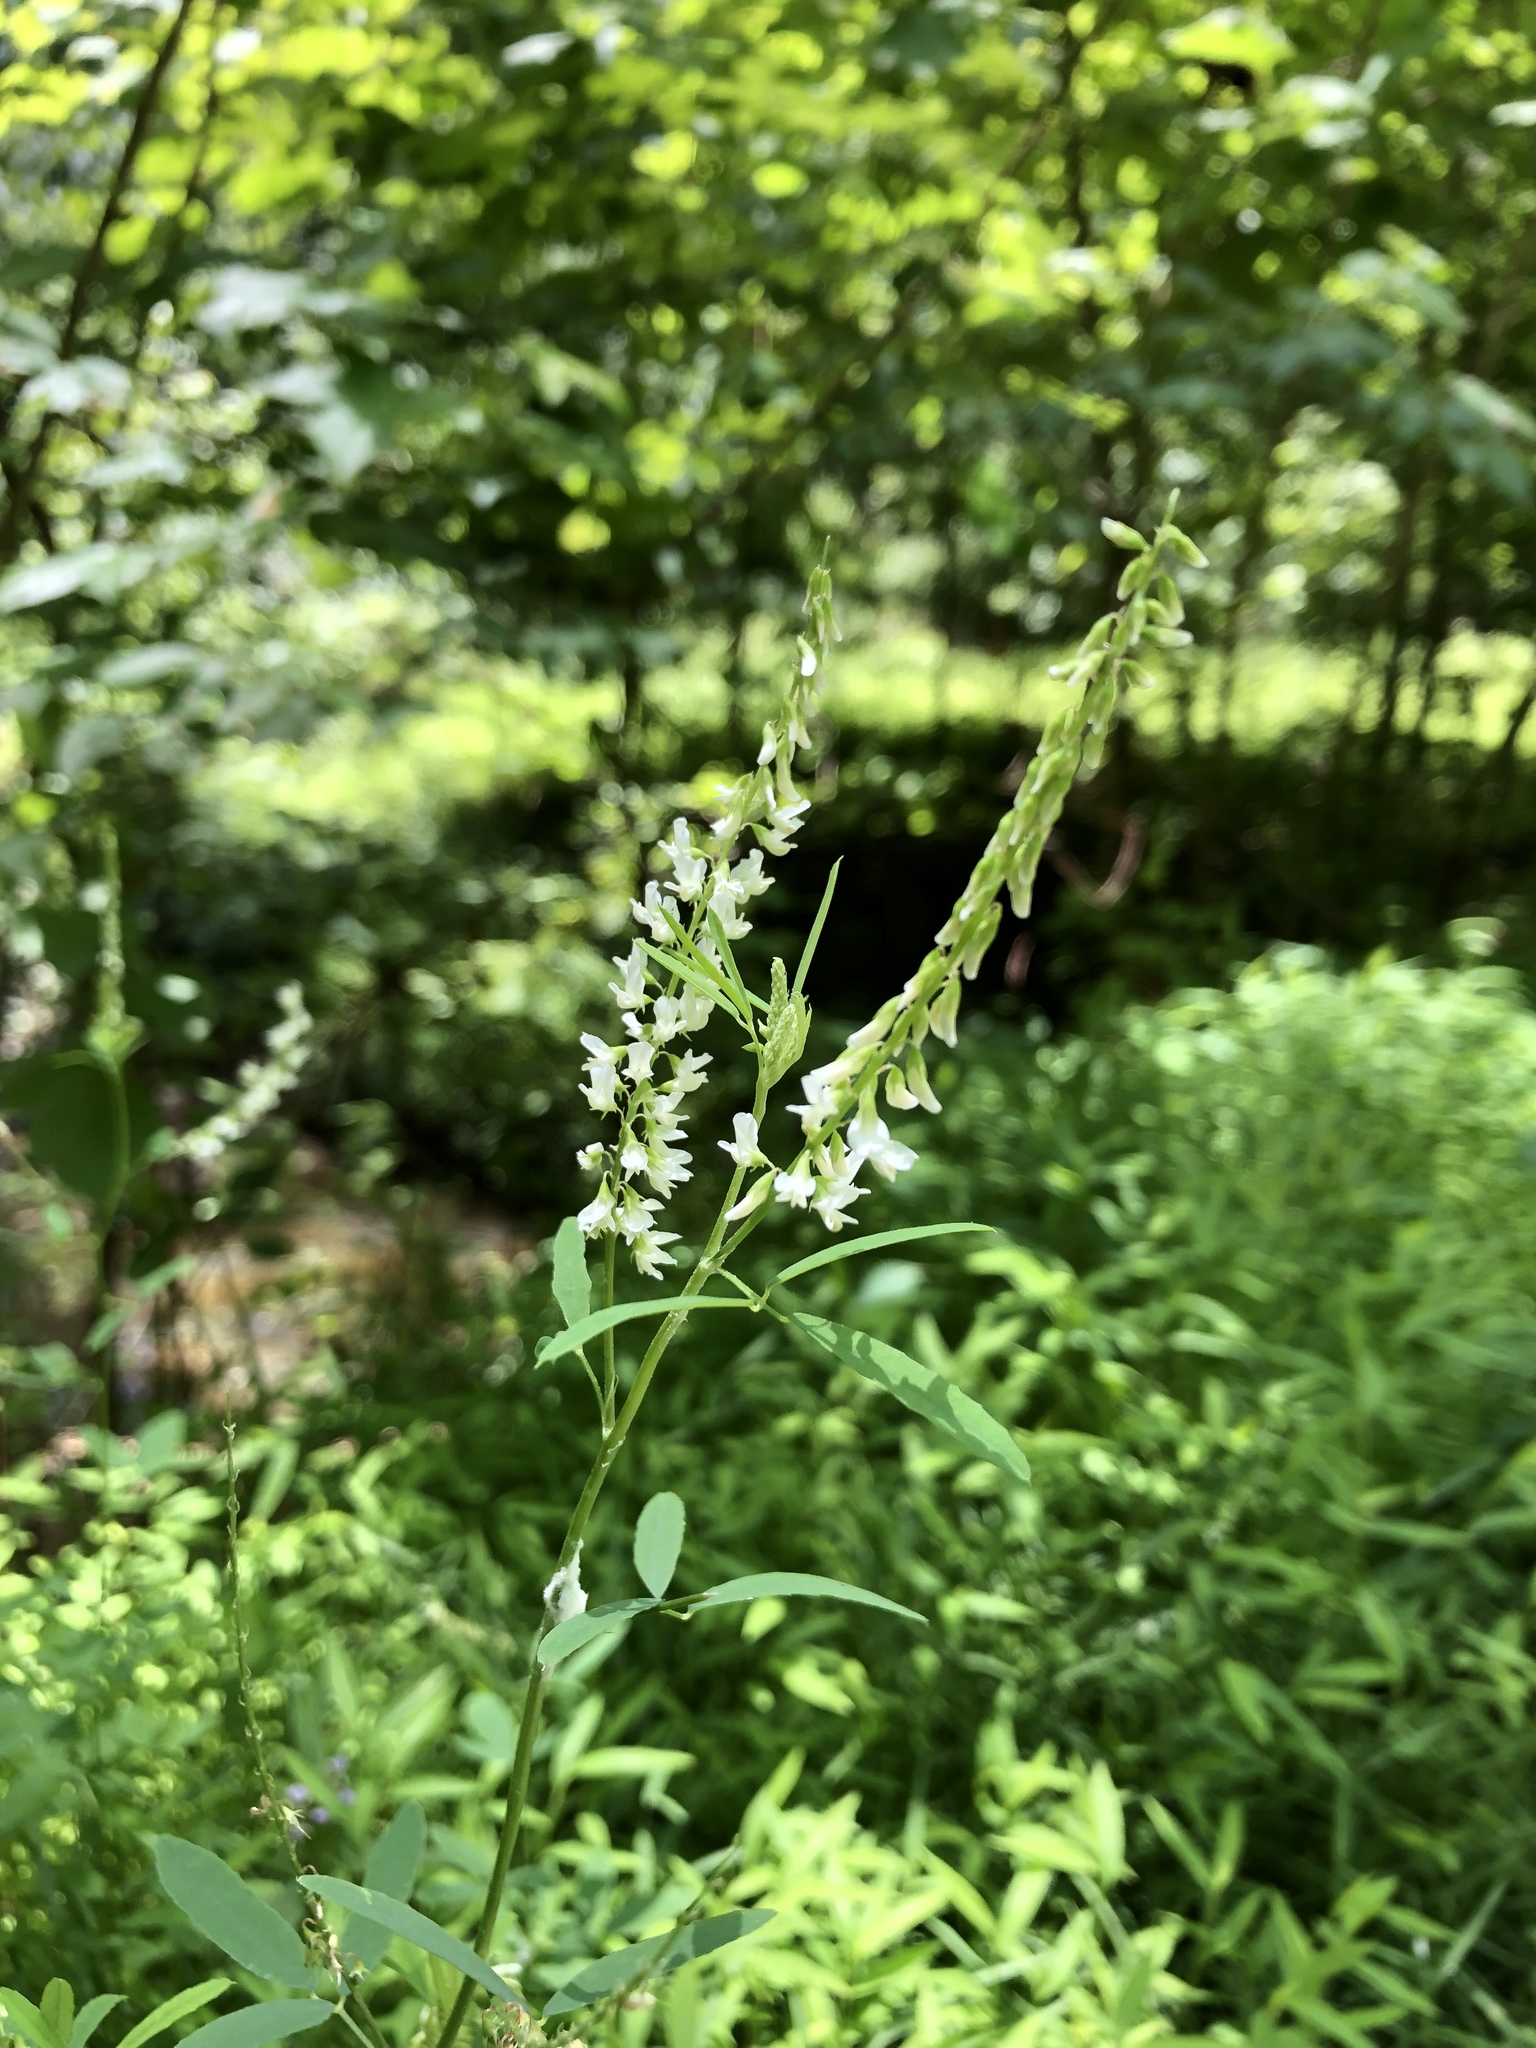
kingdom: Plantae
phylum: Tracheophyta
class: Magnoliopsida
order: Fabales
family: Fabaceae
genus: Melilotus
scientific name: Melilotus albus
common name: White melilot
